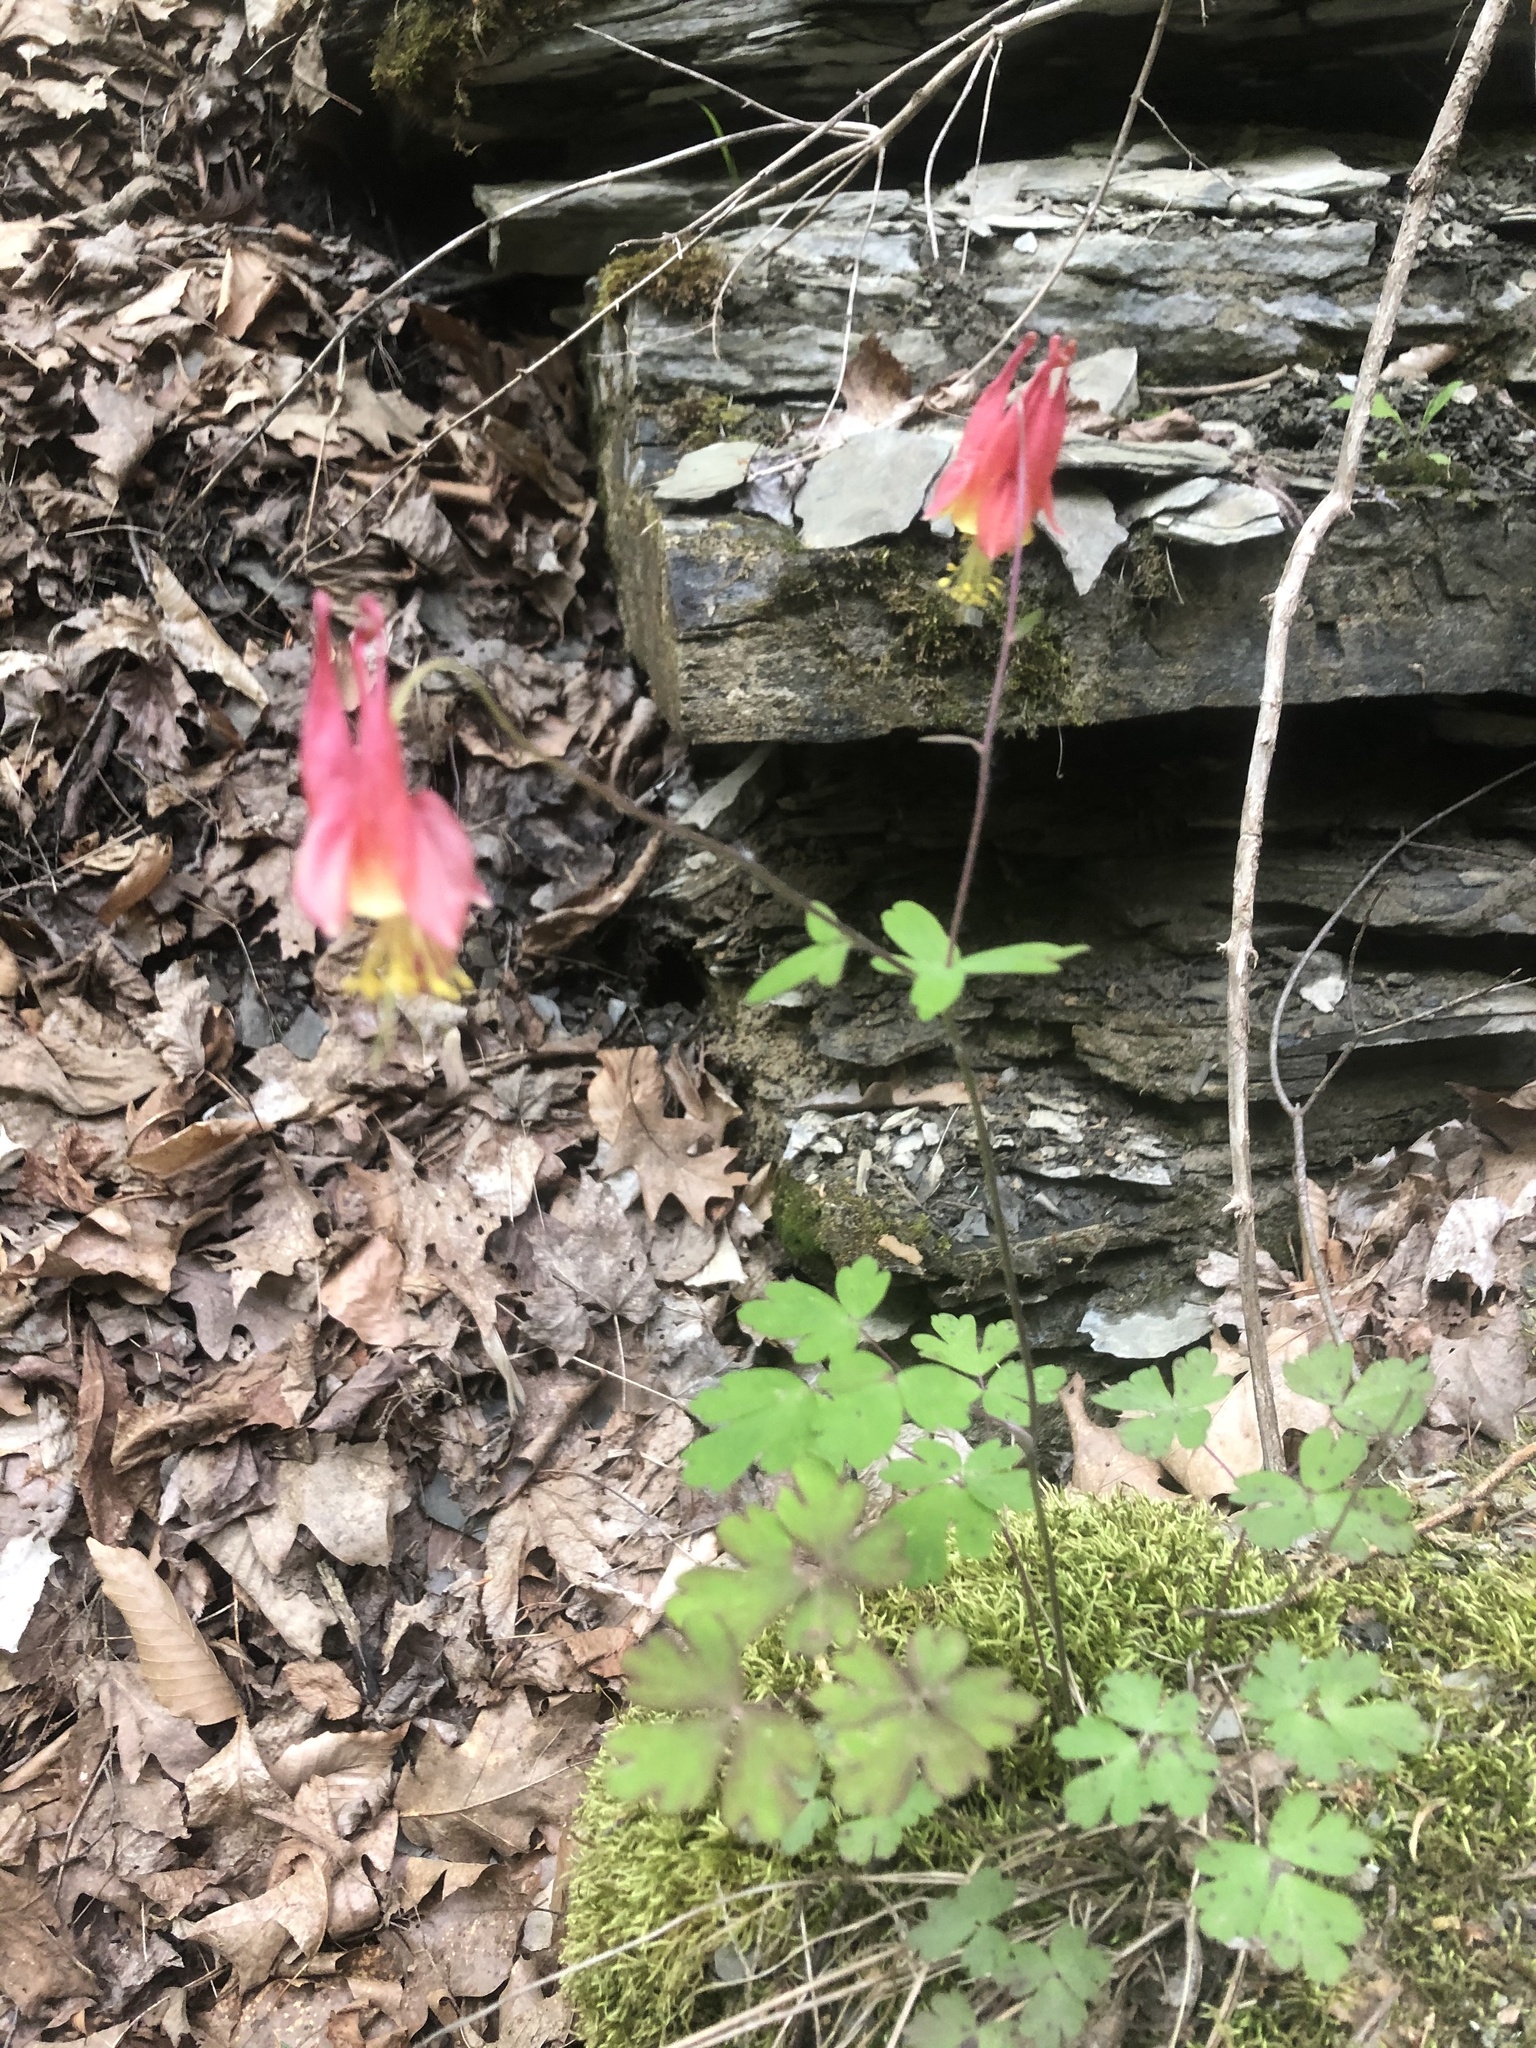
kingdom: Plantae
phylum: Tracheophyta
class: Magnoliopsida
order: Ranunculales
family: Ranunculaceae
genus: Aquilegia
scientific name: Aquilegia canadensis
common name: American columbine
